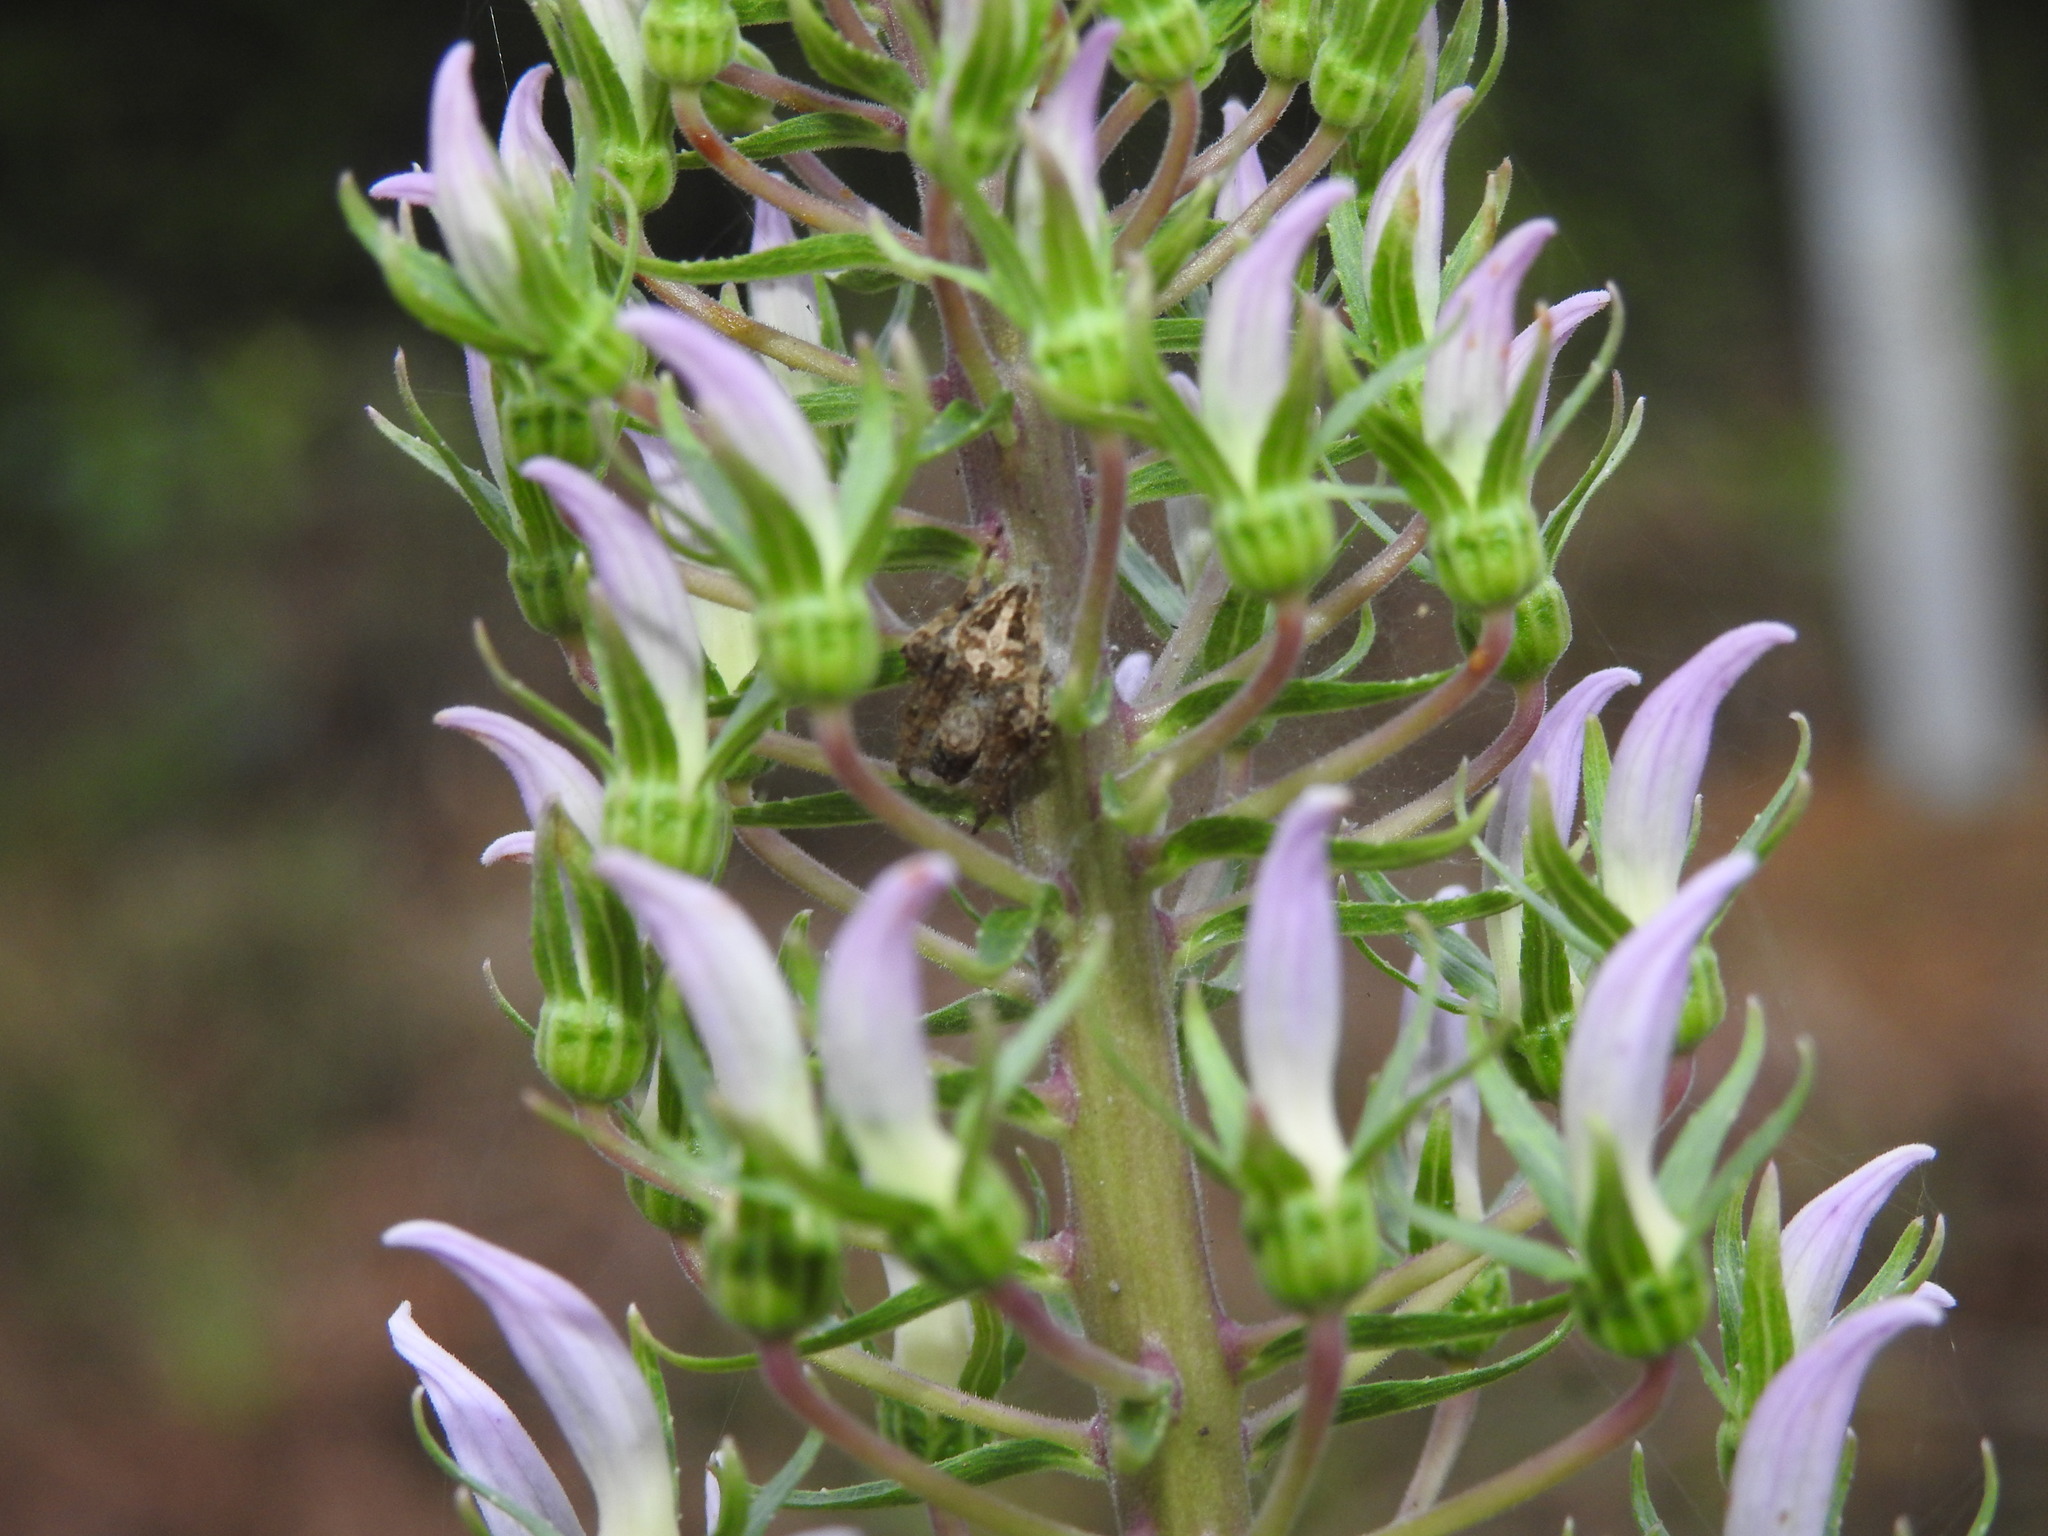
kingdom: Plantae
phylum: Tracheophyta
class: Magnoliopsida
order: Asterales
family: Campanulaceae
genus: Lobelia
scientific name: Lobelia nicotianifolia
